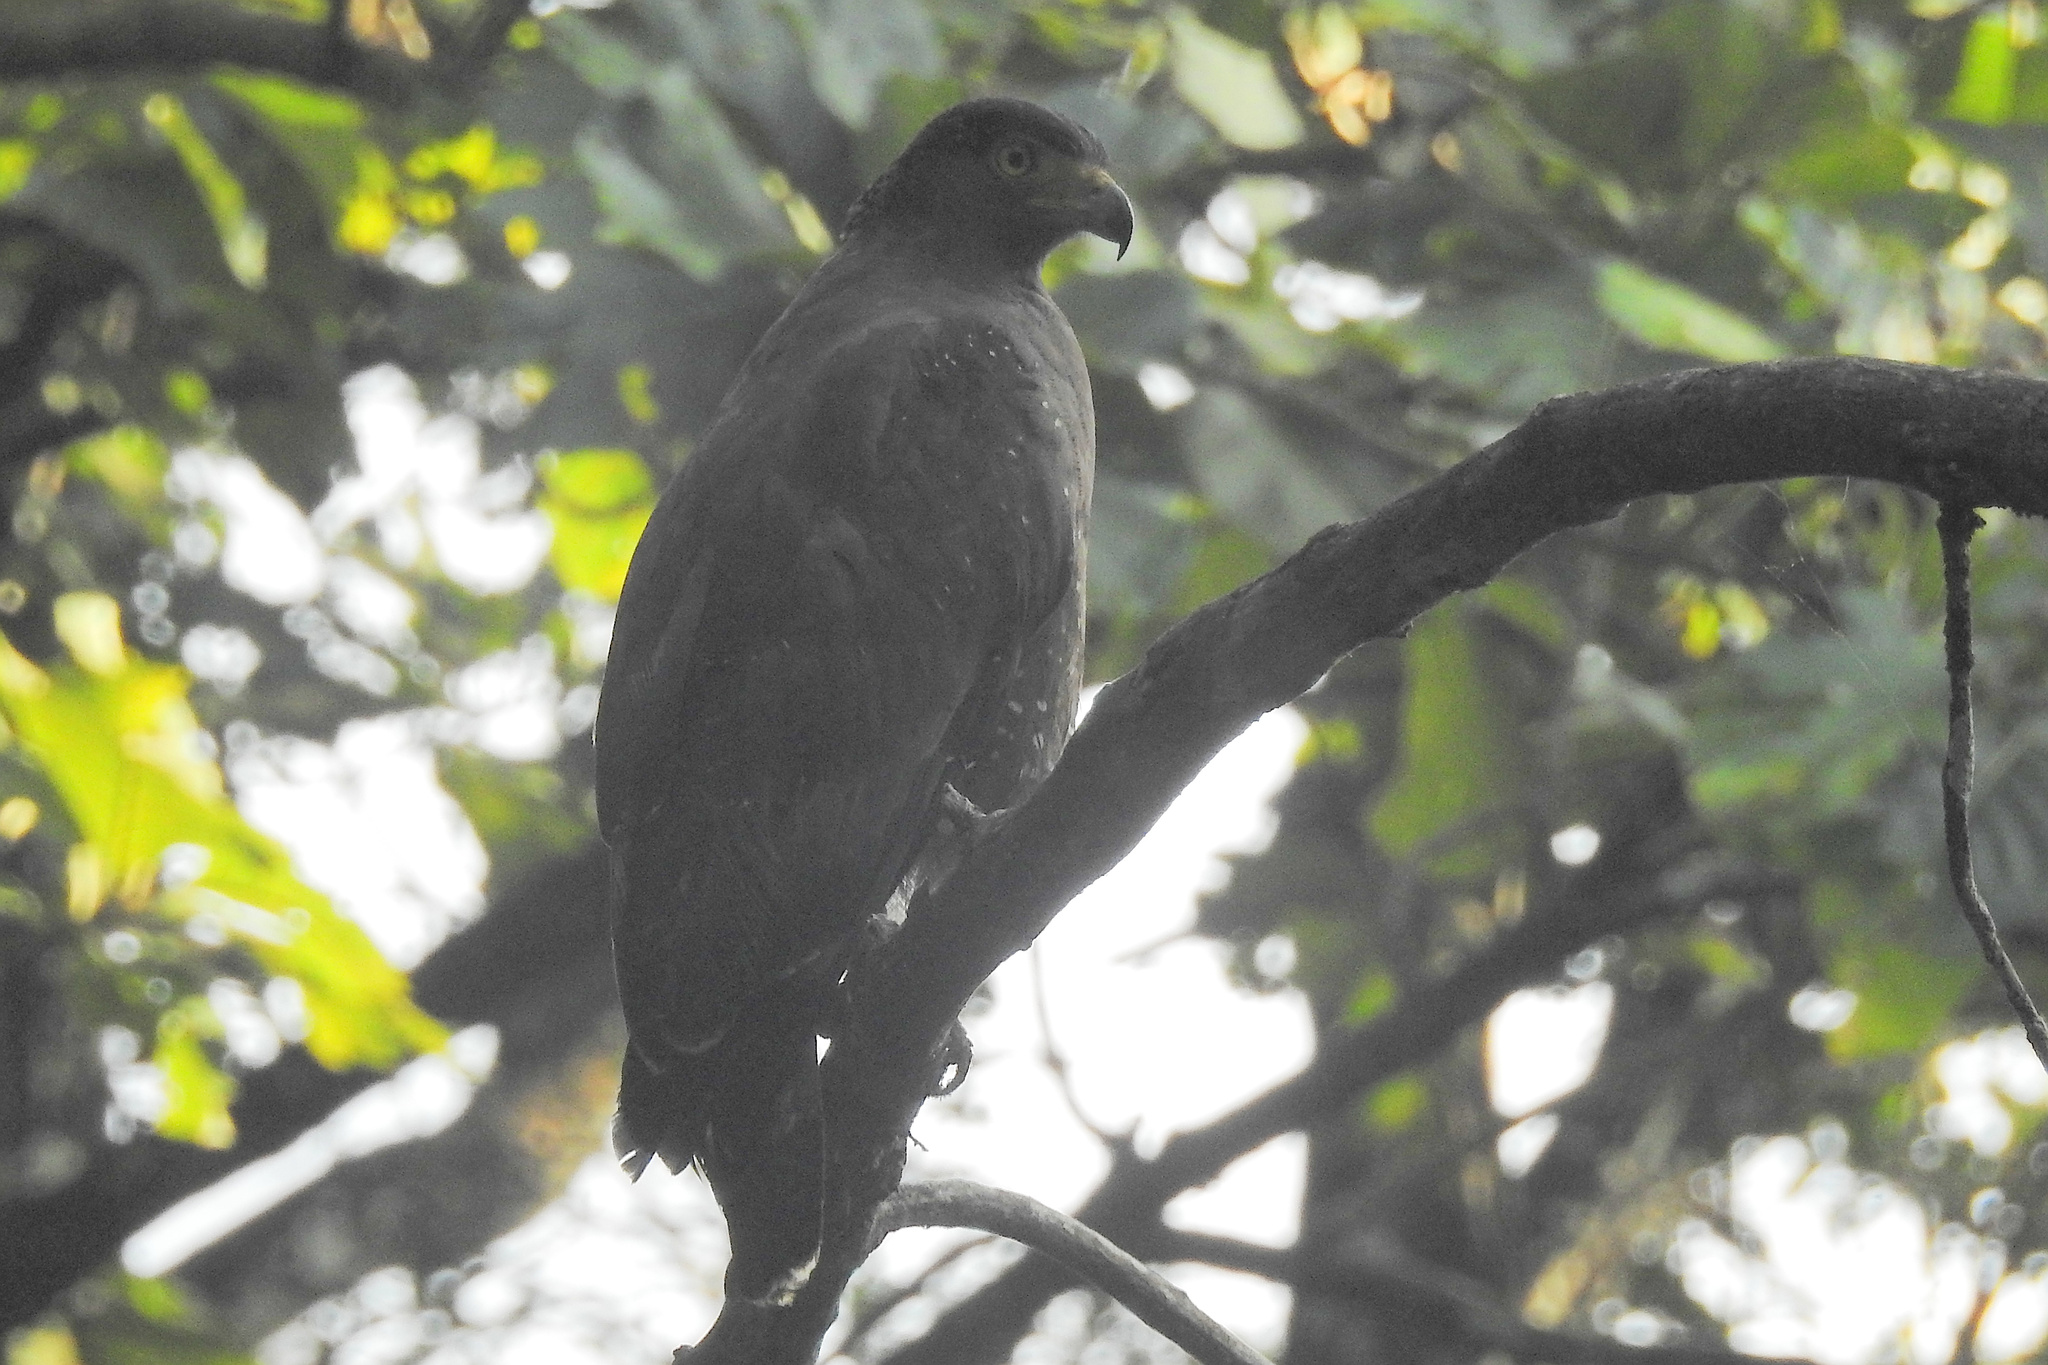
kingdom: Animalia
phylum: Chordata
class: Aves
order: Accipitriformes
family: Accipitridae
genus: Spilornis
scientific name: Spilornis cheela
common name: Crested serpent eagle
